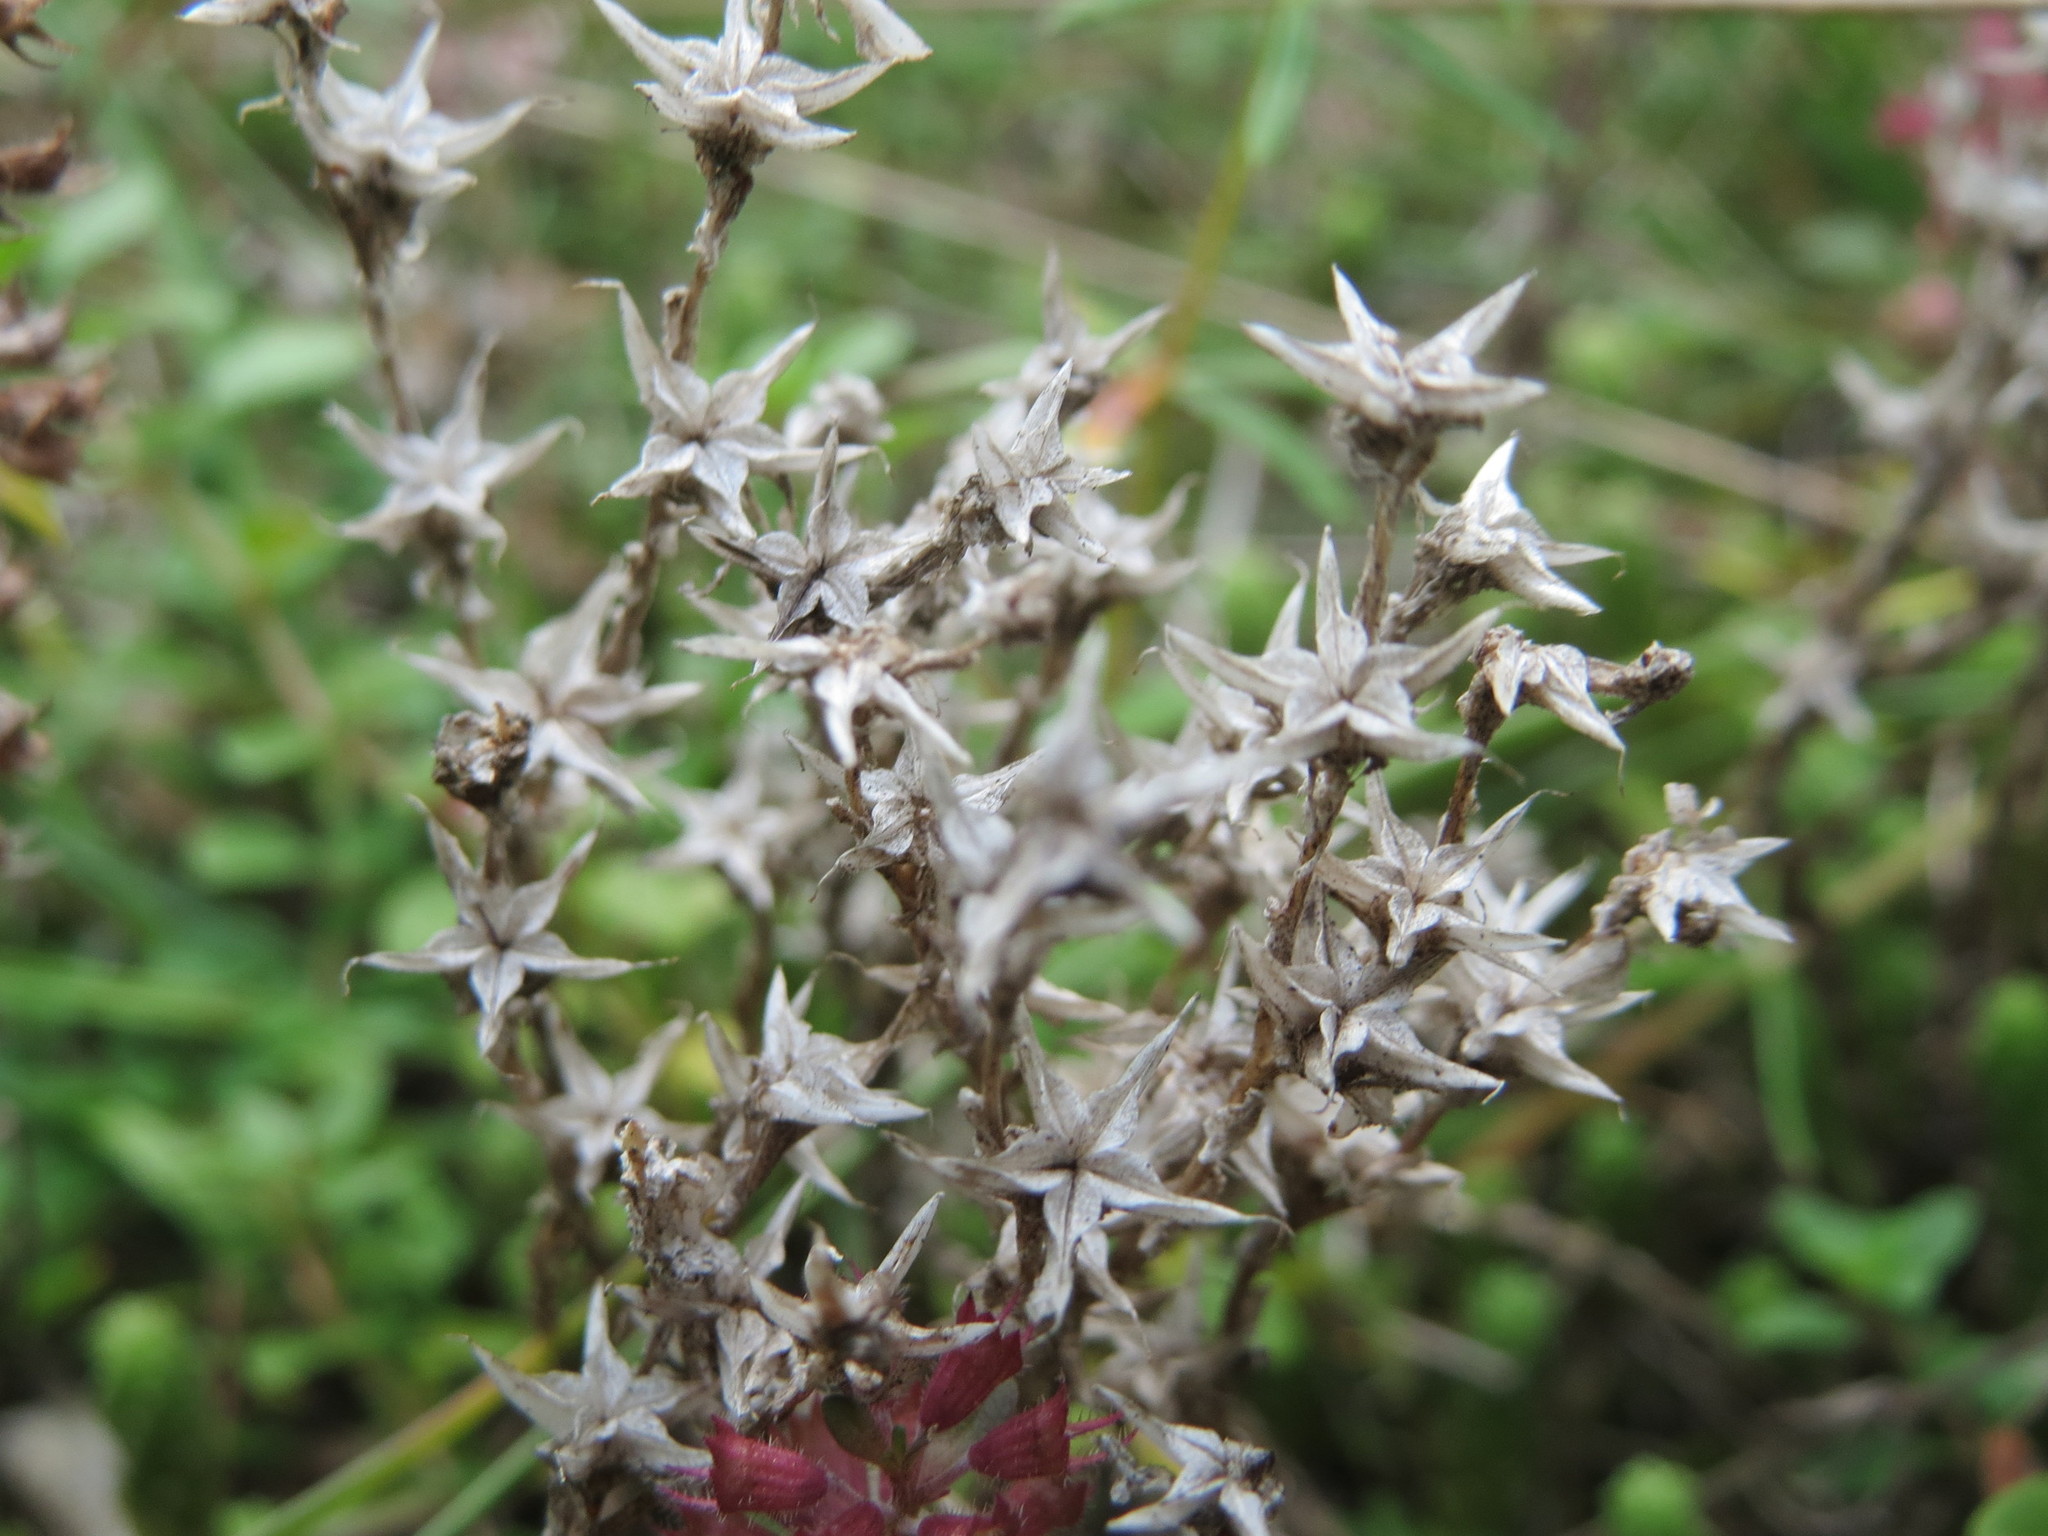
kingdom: Plantae
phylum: Tracheophyta
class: Magnoliopsida
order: Saxifragales
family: Crassulaceae
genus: Sedum
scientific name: Sedum acre
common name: Biting stonecrop
